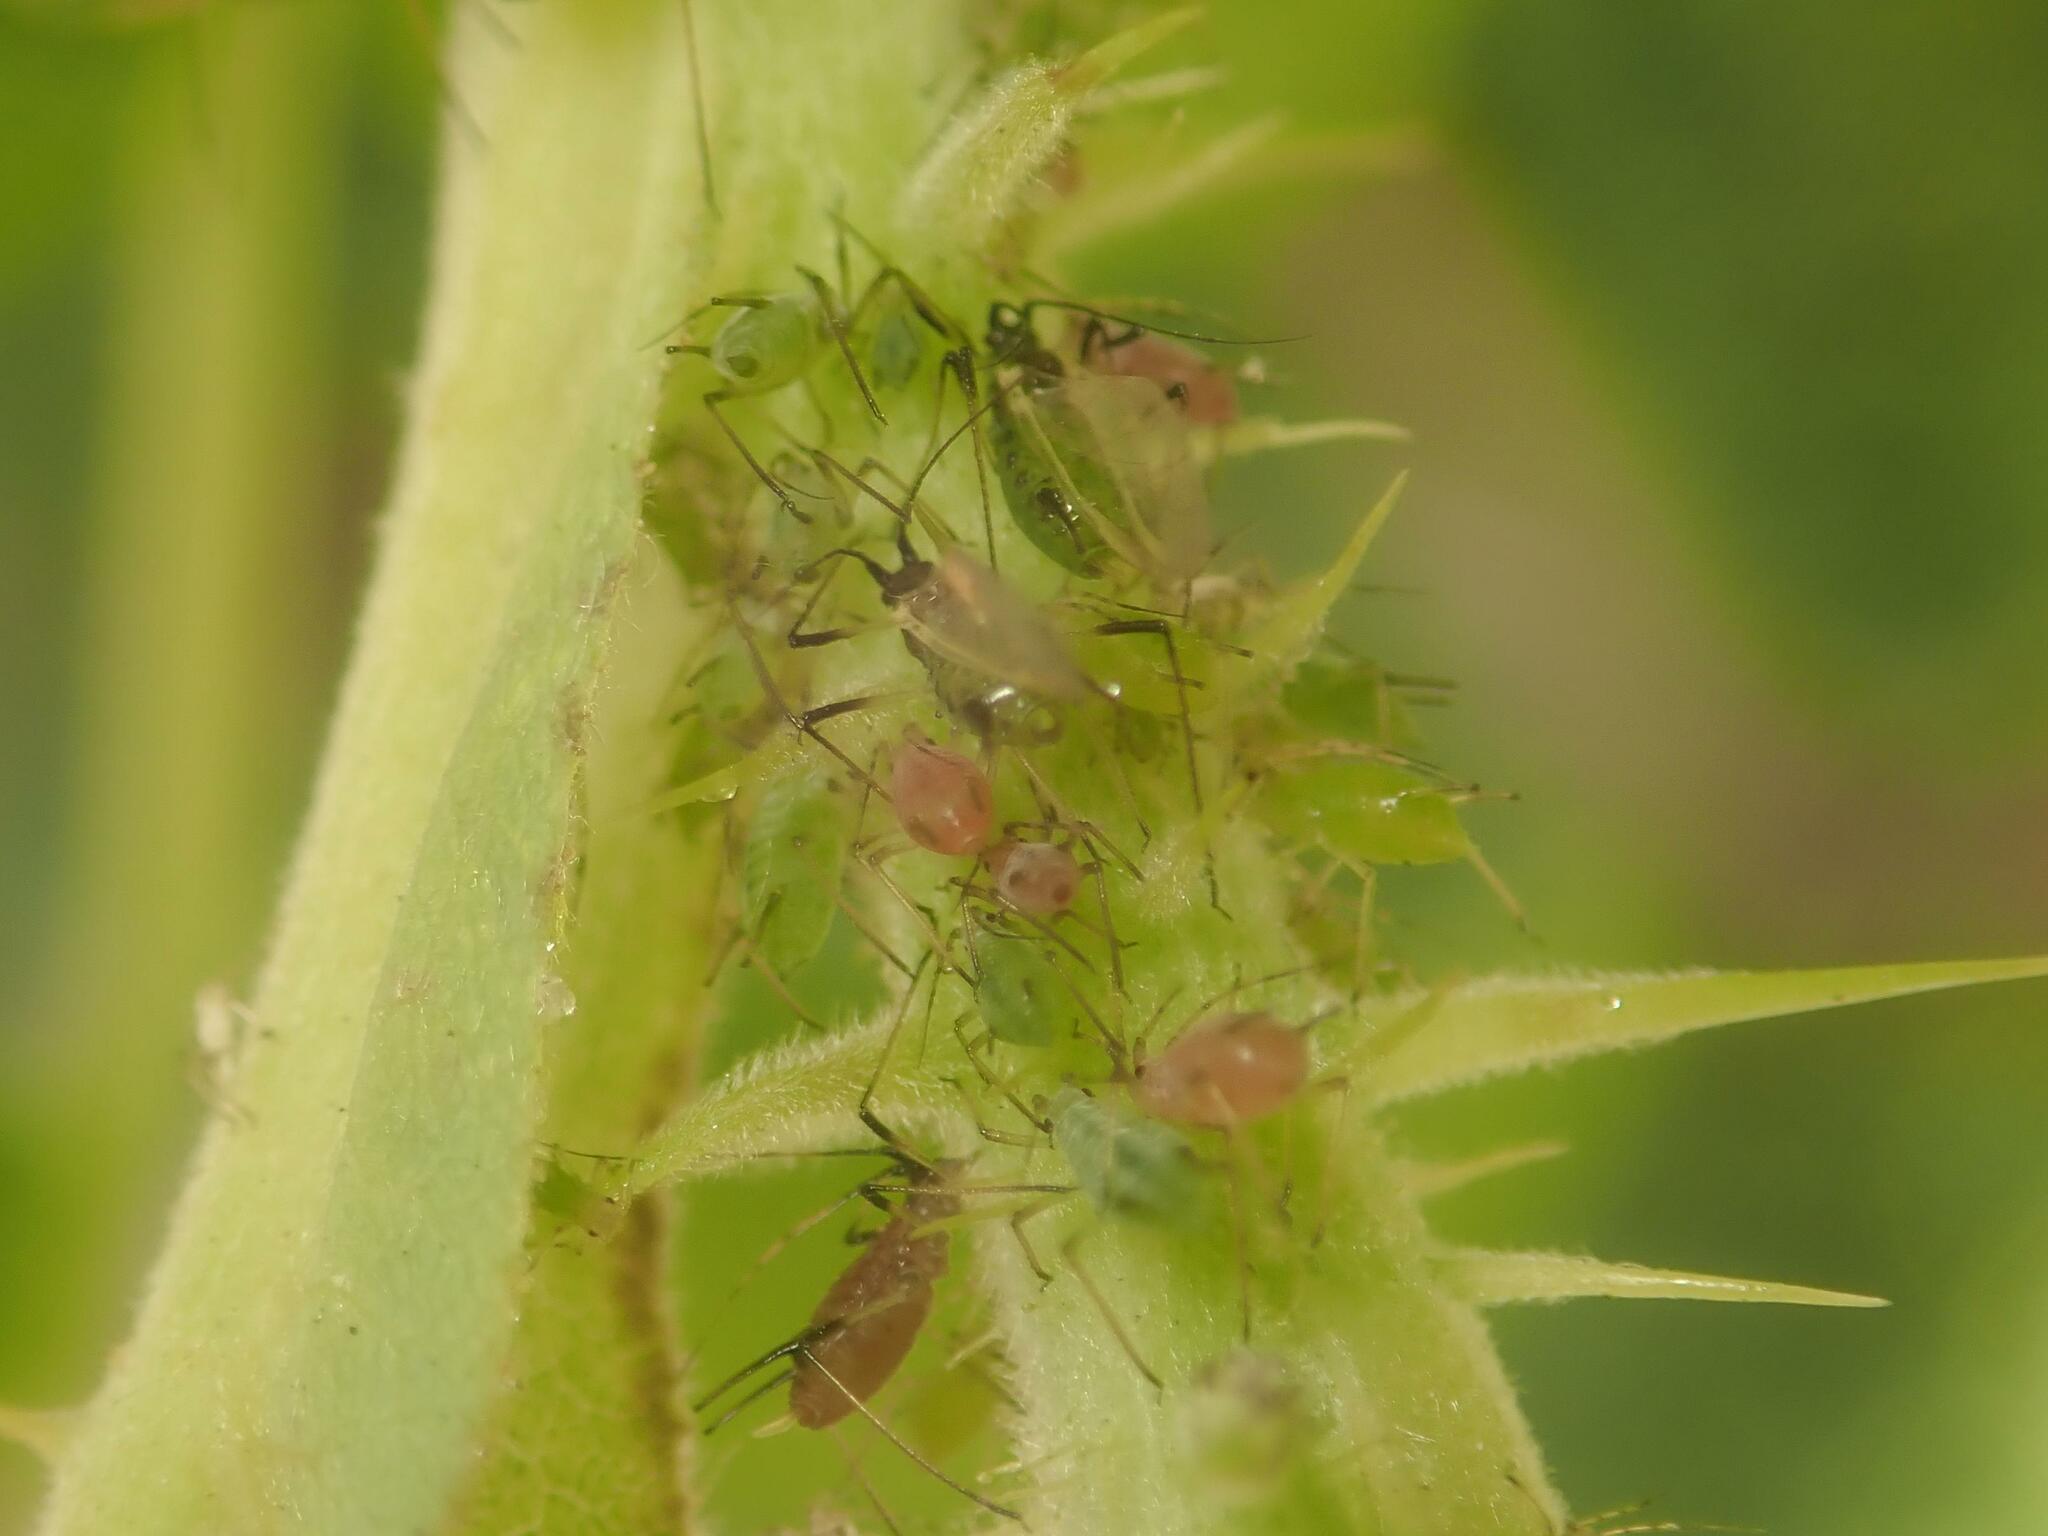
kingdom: Animalia
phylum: Arthropoda
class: Insecta
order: Hemiptera
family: Aphididae
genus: Macrosiphum
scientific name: Macrosiphum rosae
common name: Rose aphid
